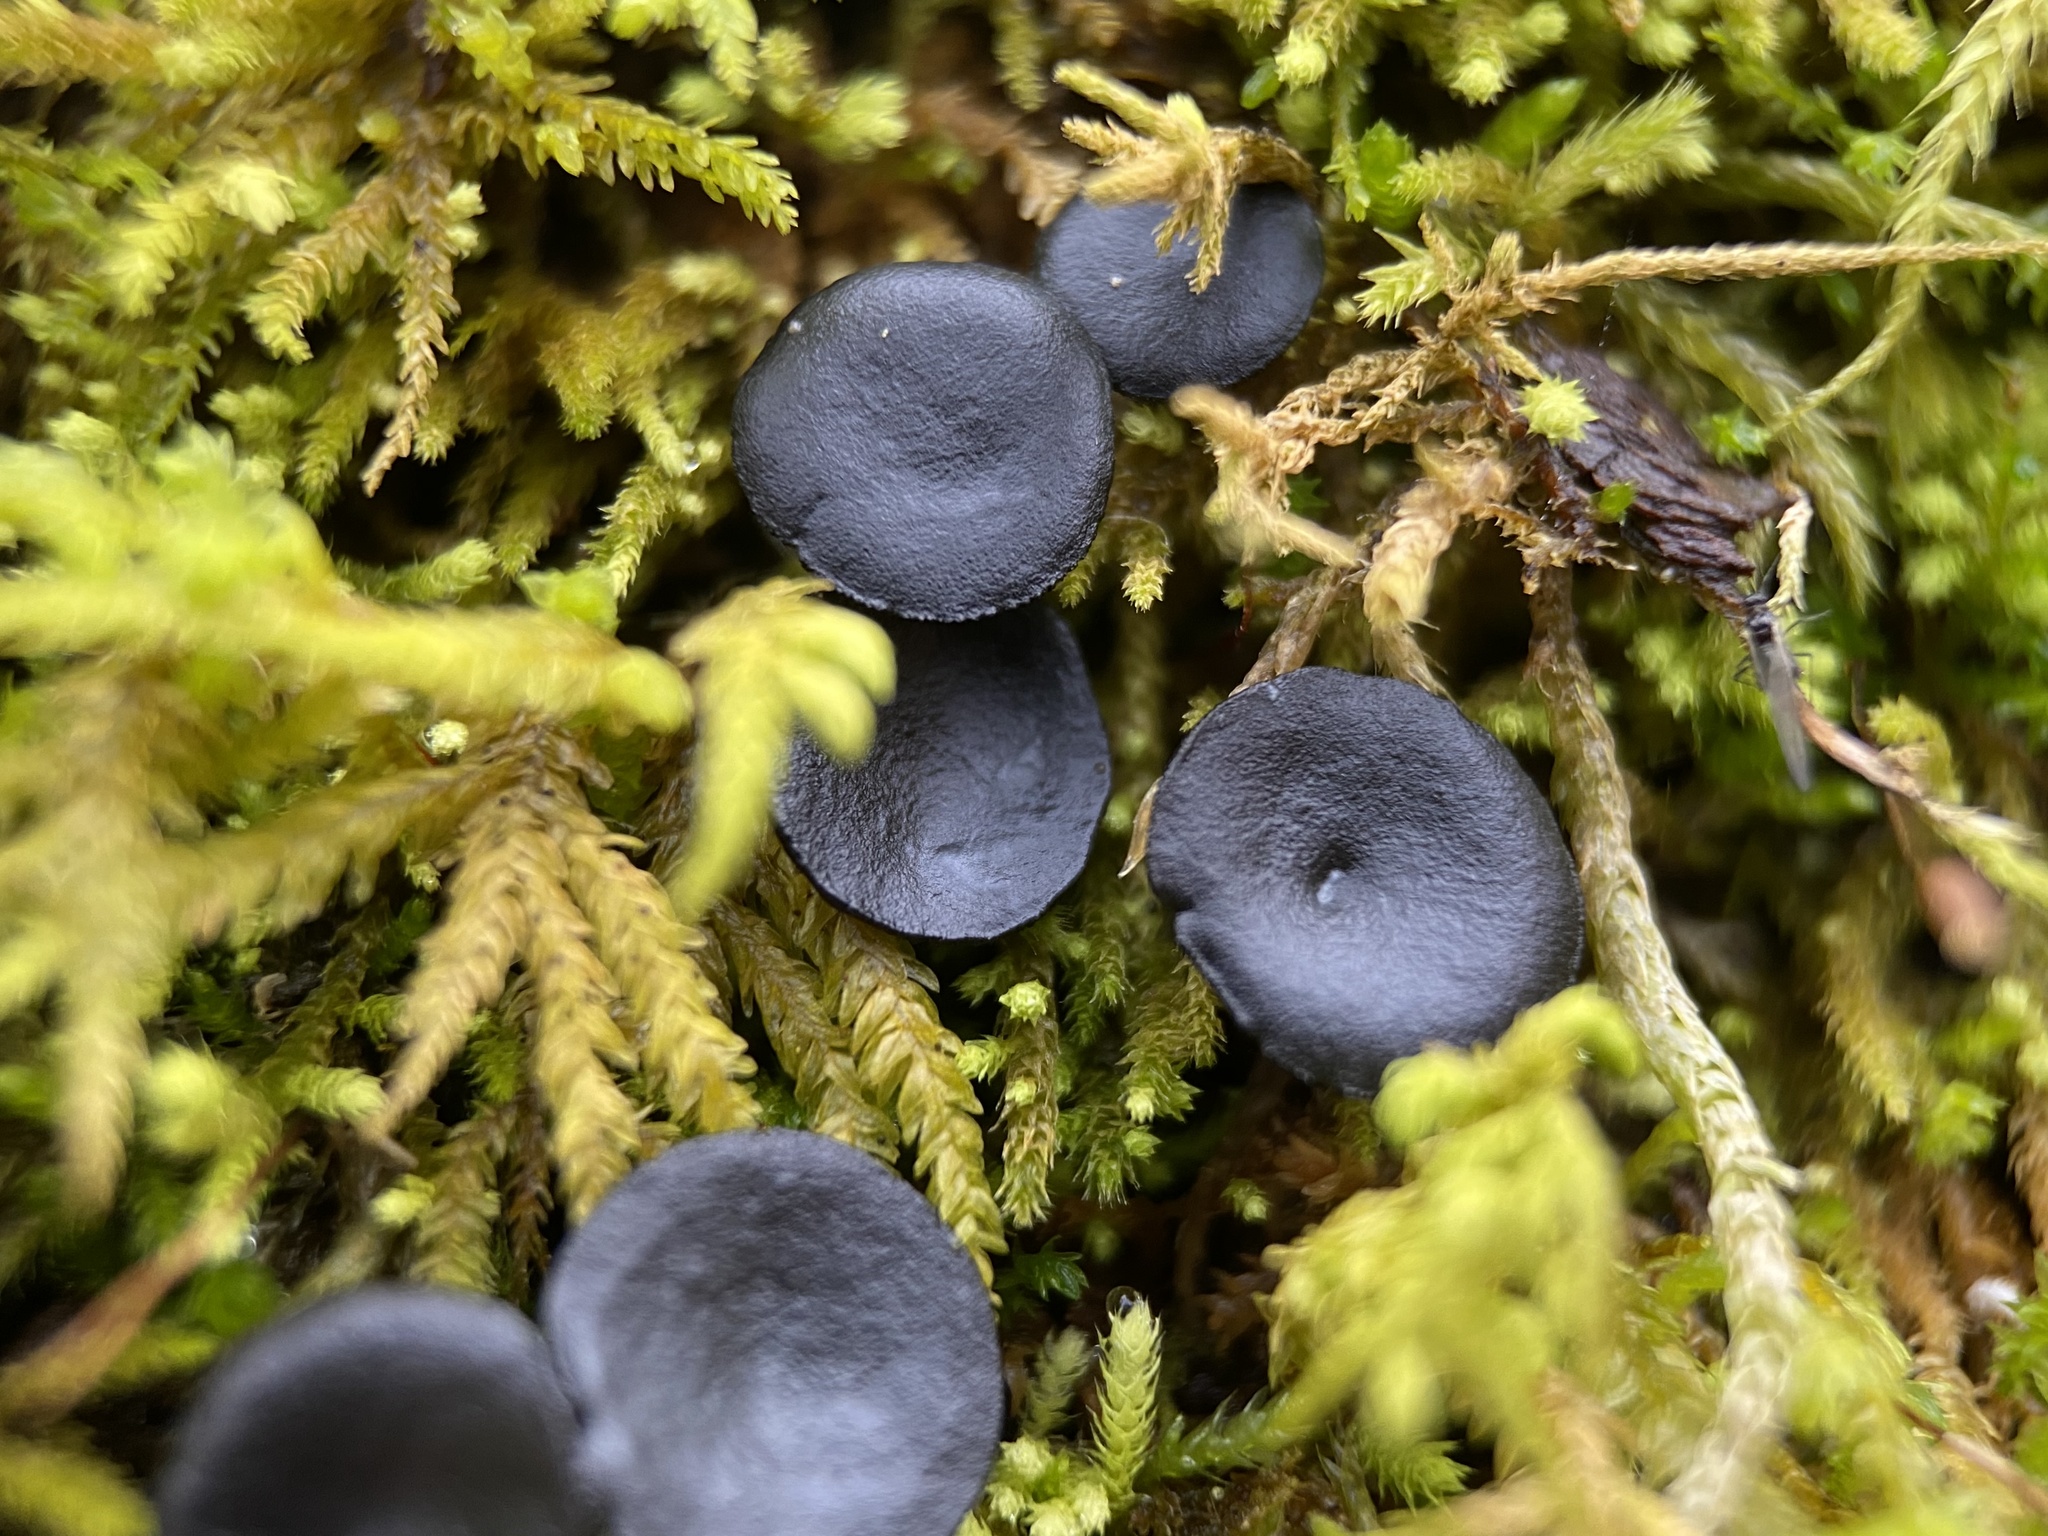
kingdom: Fungi
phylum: Ascomycota
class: Leotiomycetes
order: Helotiales
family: Bulgariaceae
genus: Holwaya
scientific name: Holwaya mucida
